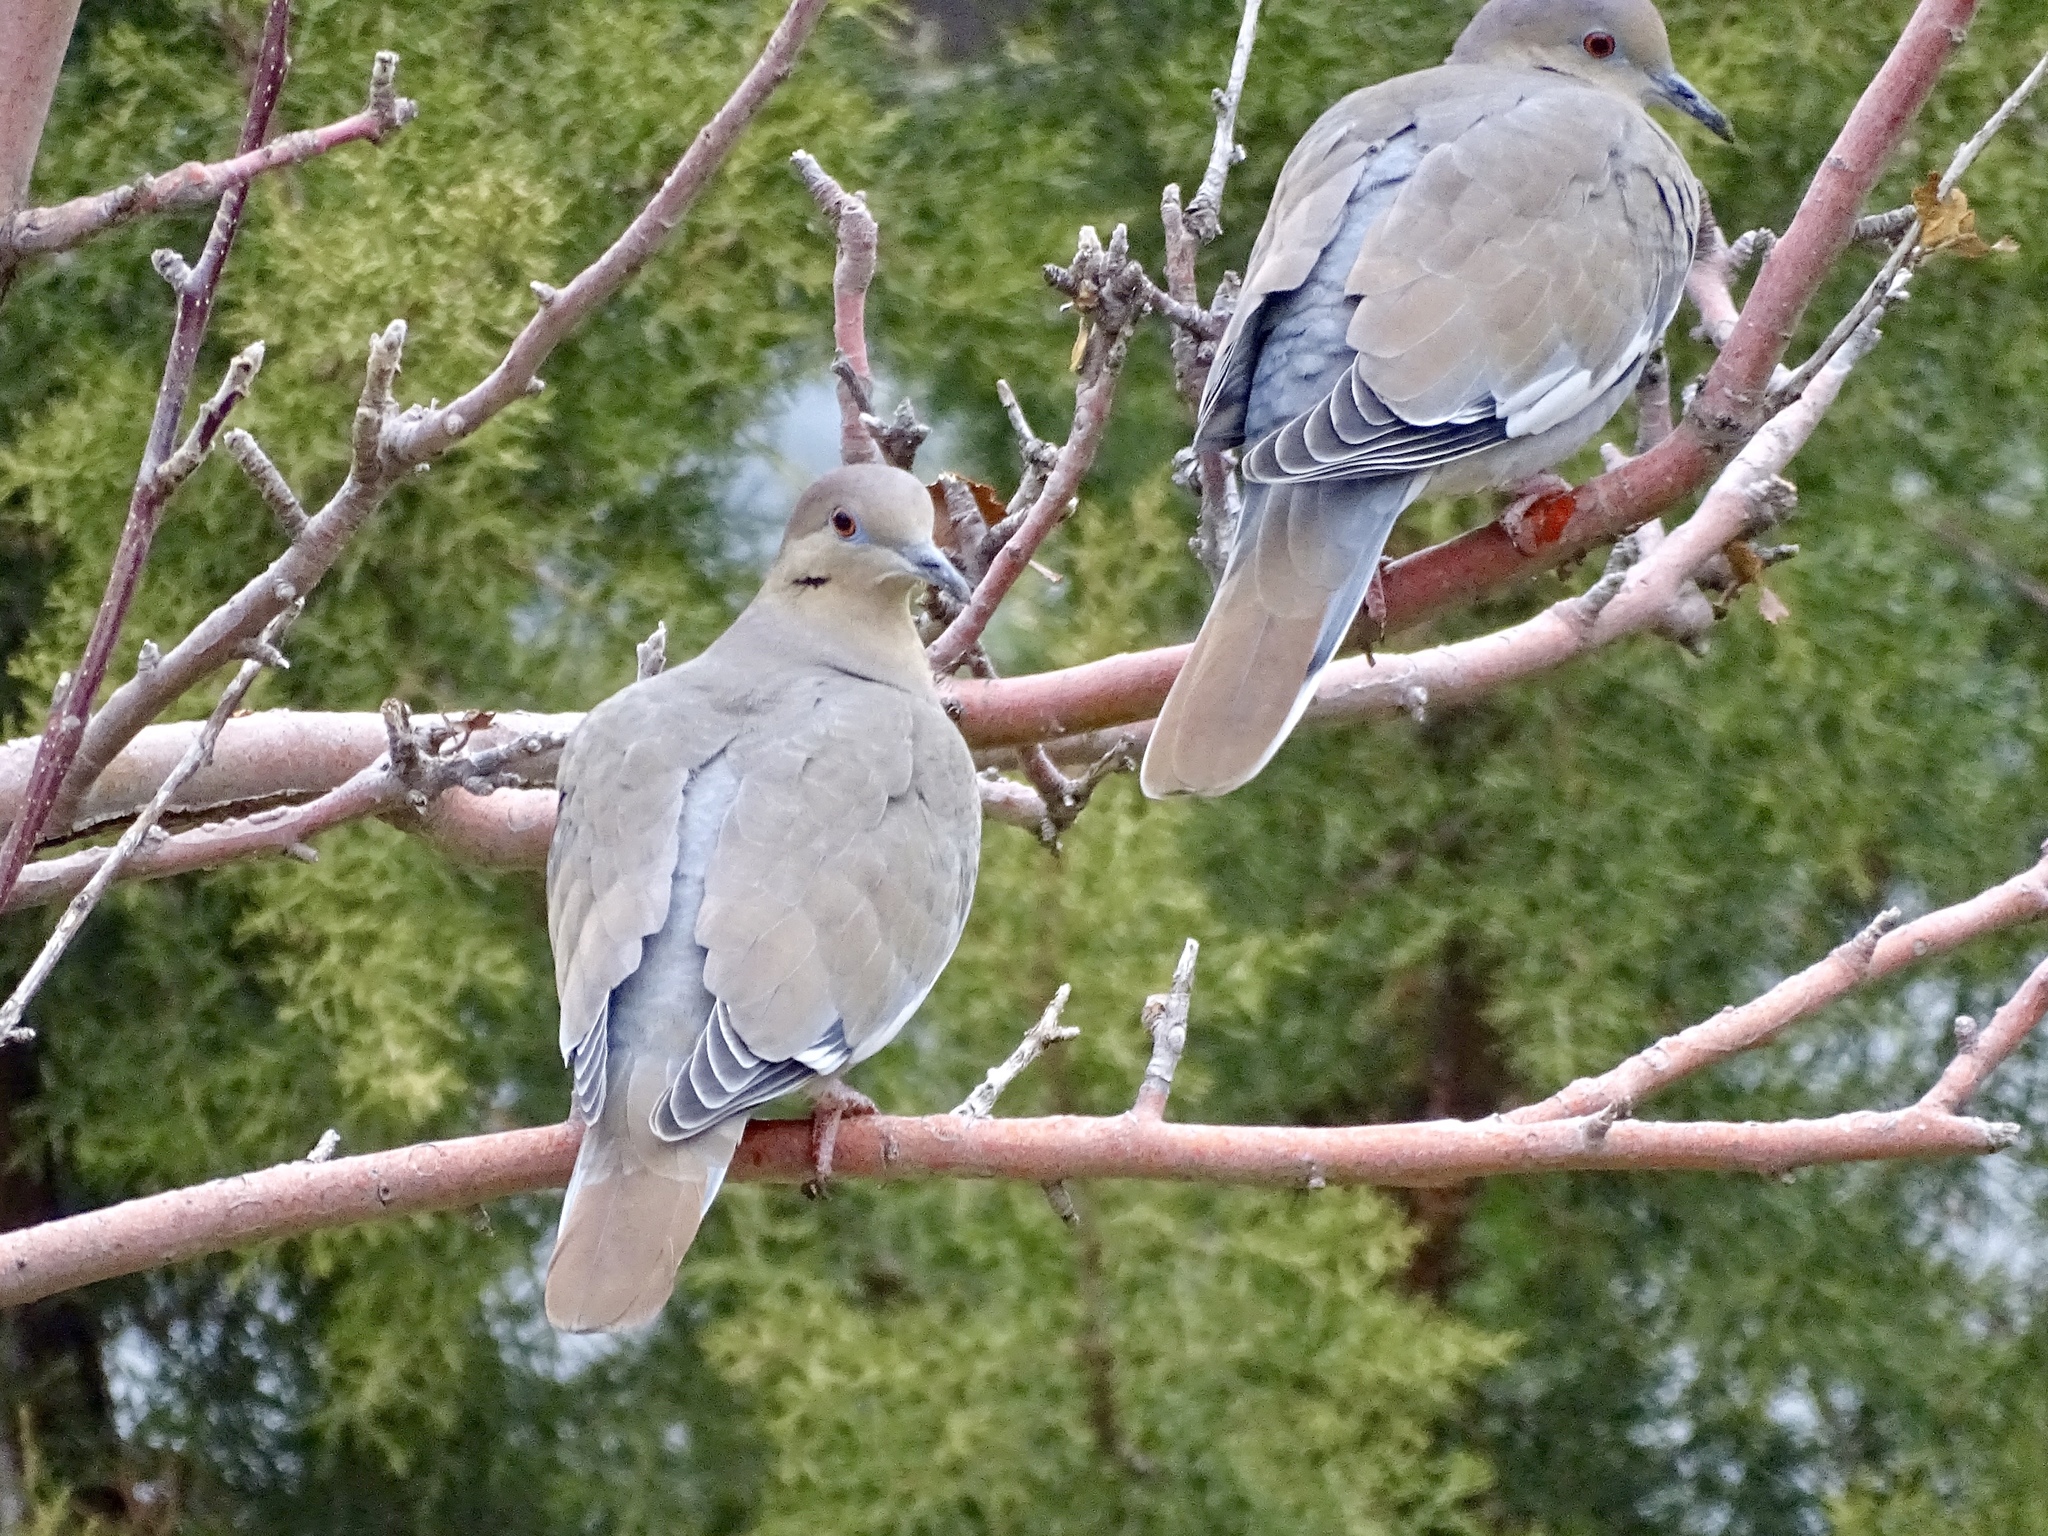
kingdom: Animalia
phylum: Chordata
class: Aves
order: Columbiformes
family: Columbidae
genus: Zenaida
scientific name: Zenaida asiatica
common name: White-winged dove
